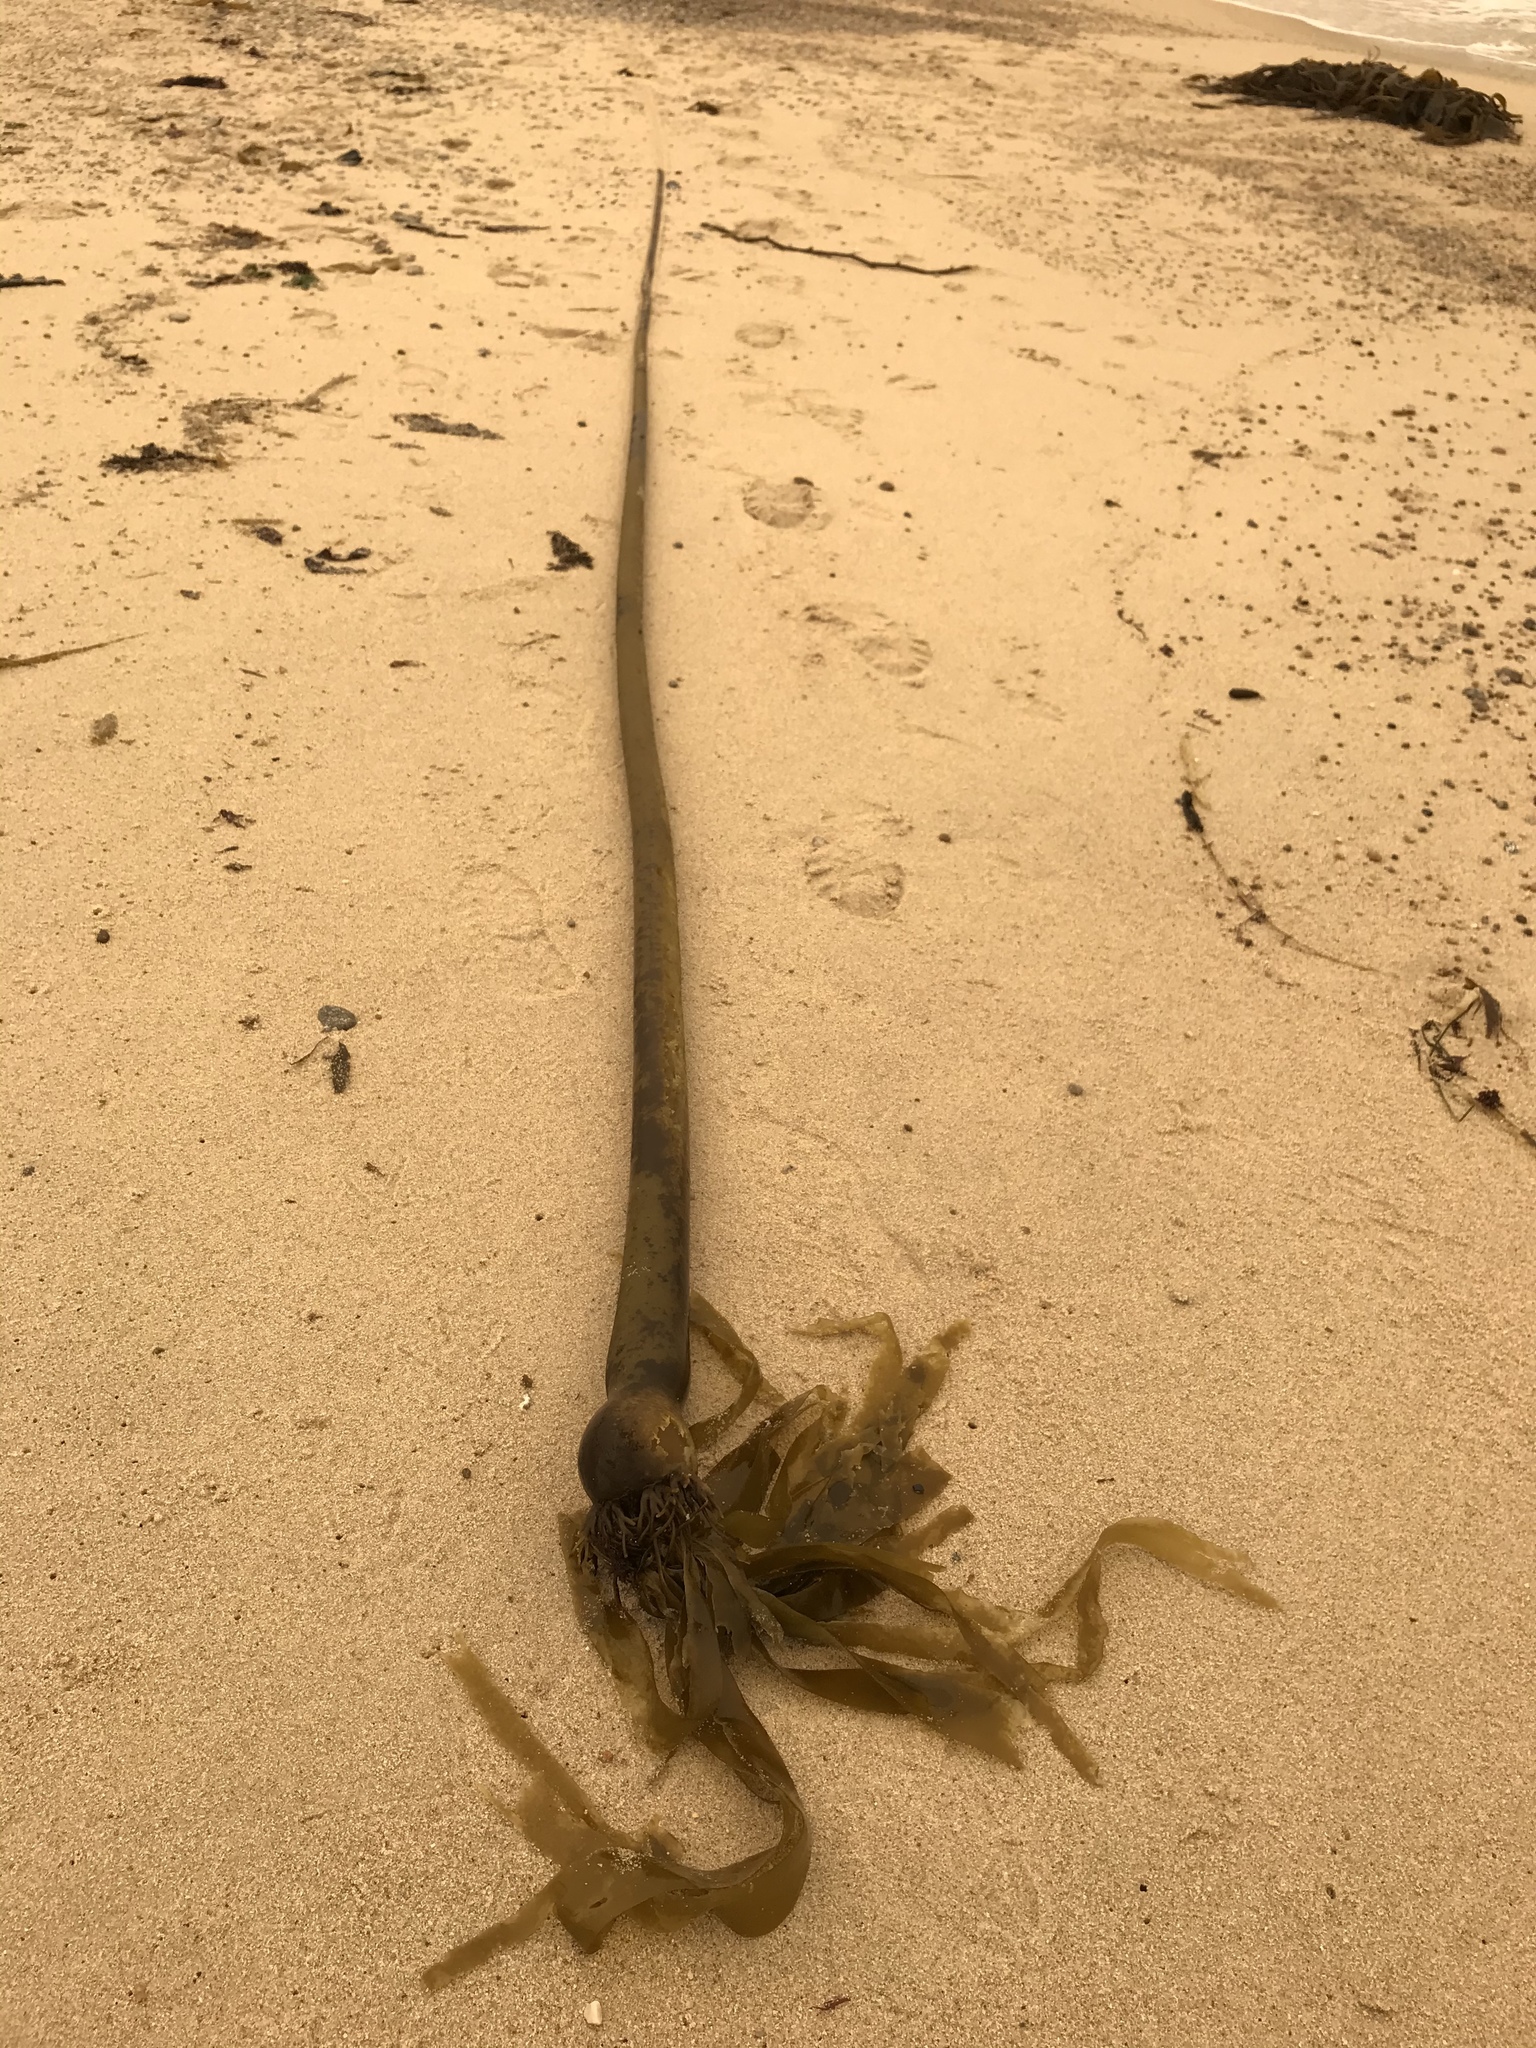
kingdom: Chromista
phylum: Ochrophyta
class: Phaeophyceae
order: Laminariales
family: Laminariaceae
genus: Nereocystis
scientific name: Nereocystis luetkeana
